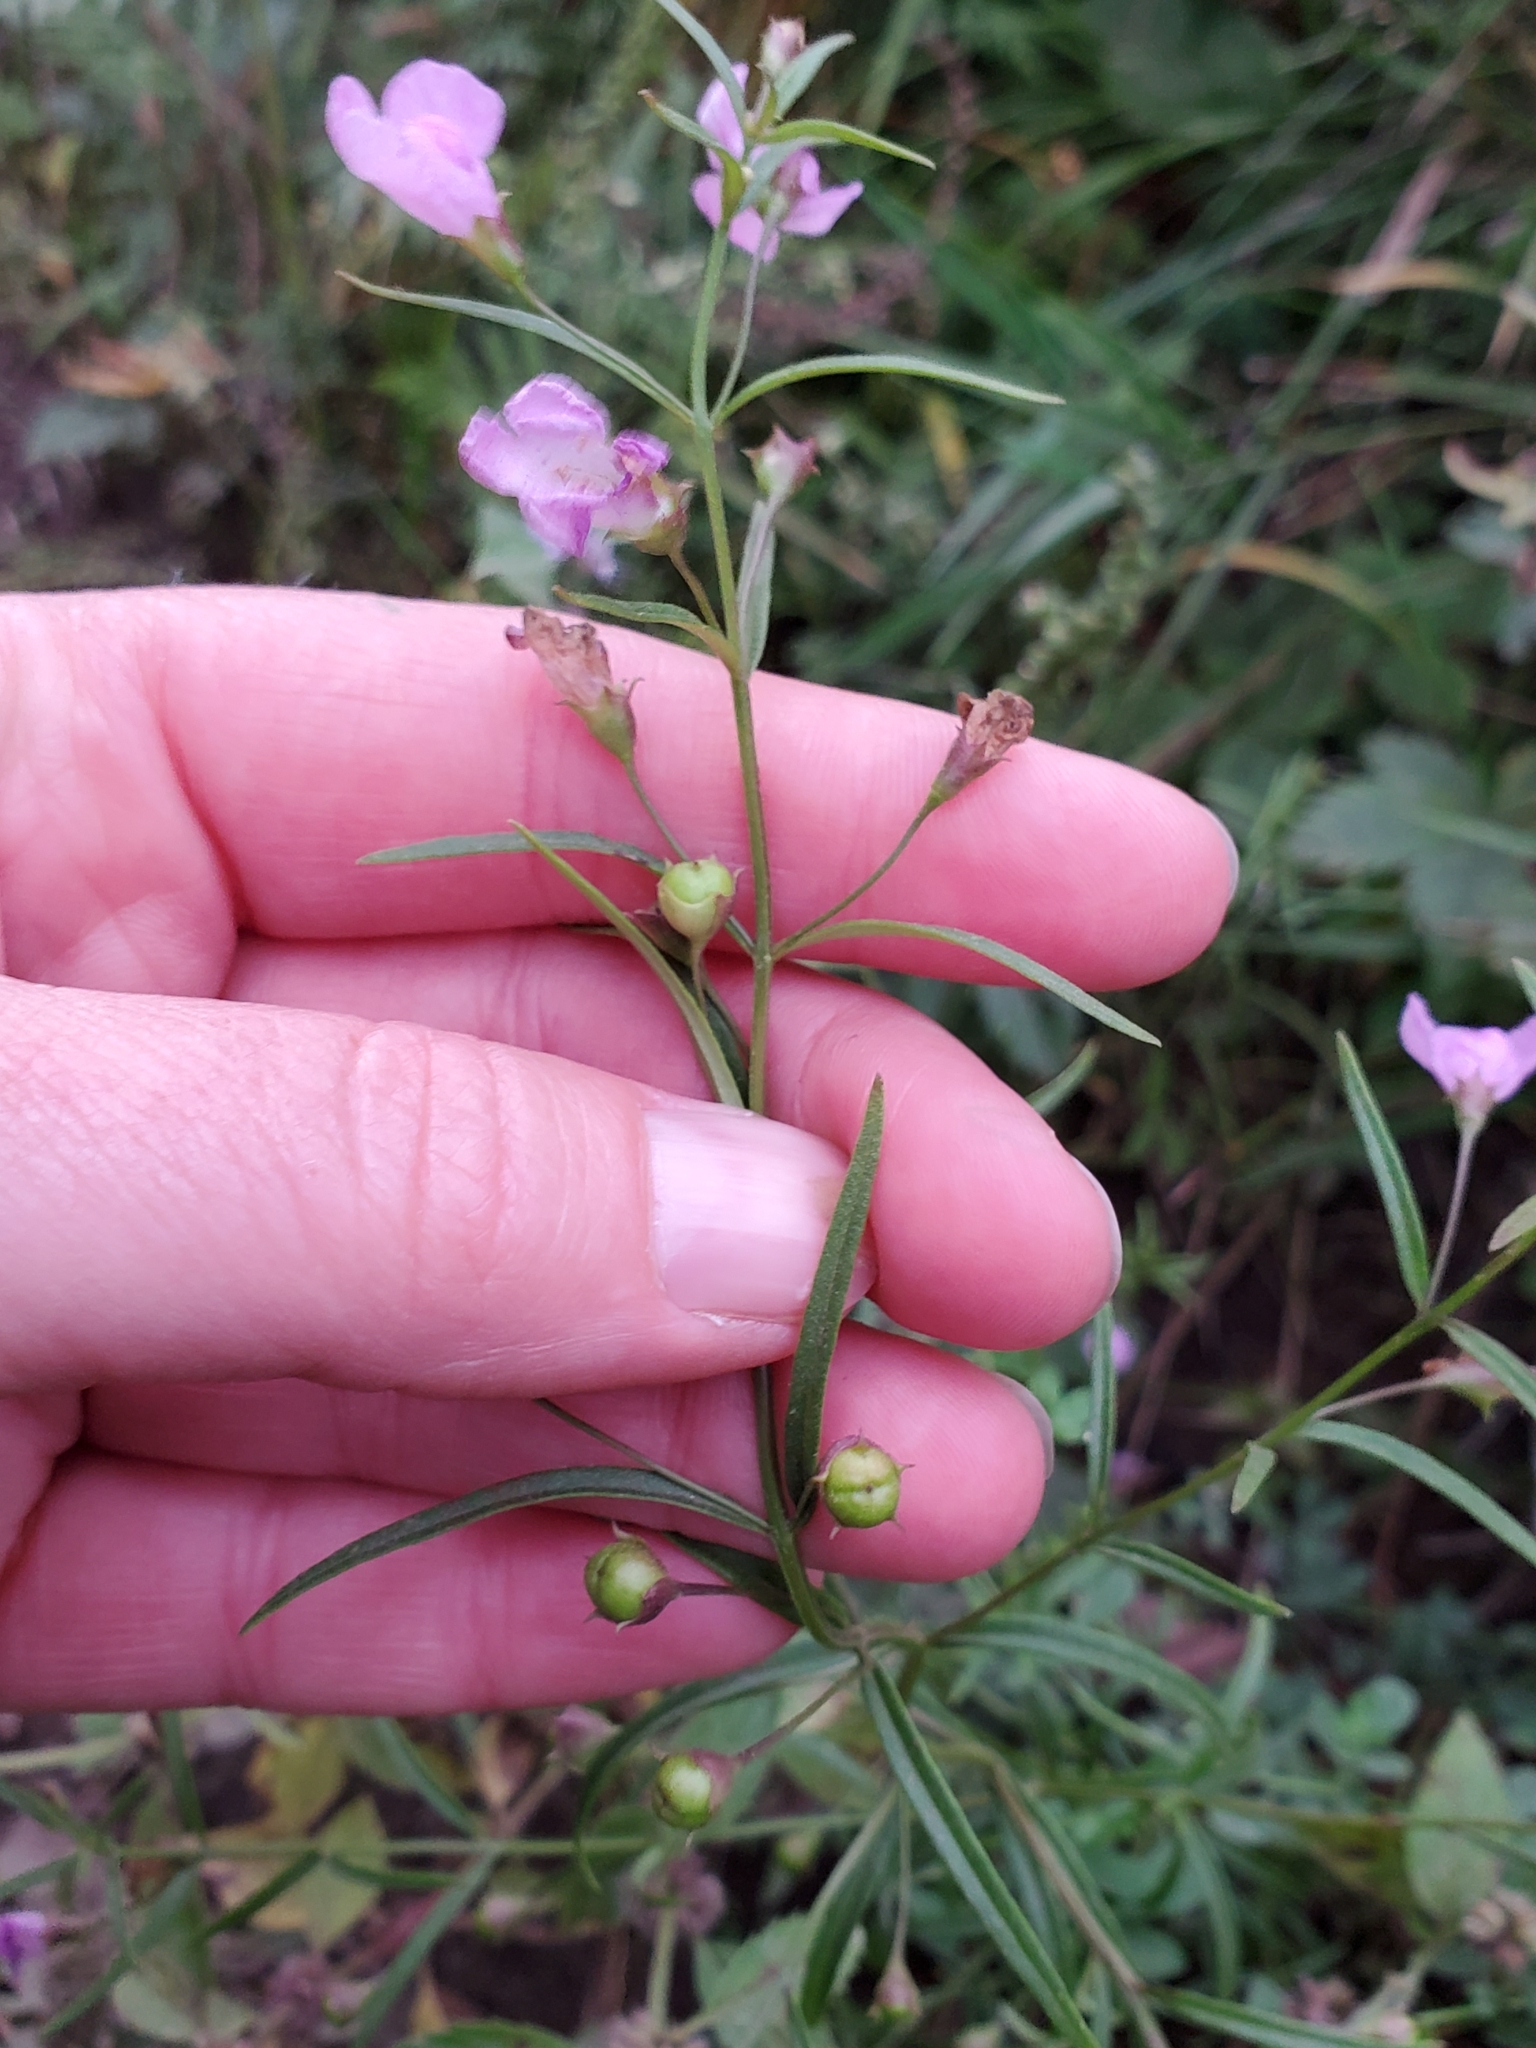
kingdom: Plantae
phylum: Tracheophyta
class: Magnoliopsida
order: Lamiales
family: Orobanchaceae
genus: Agalinis
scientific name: Agalinis tenuifolia
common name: Slender agalinis
